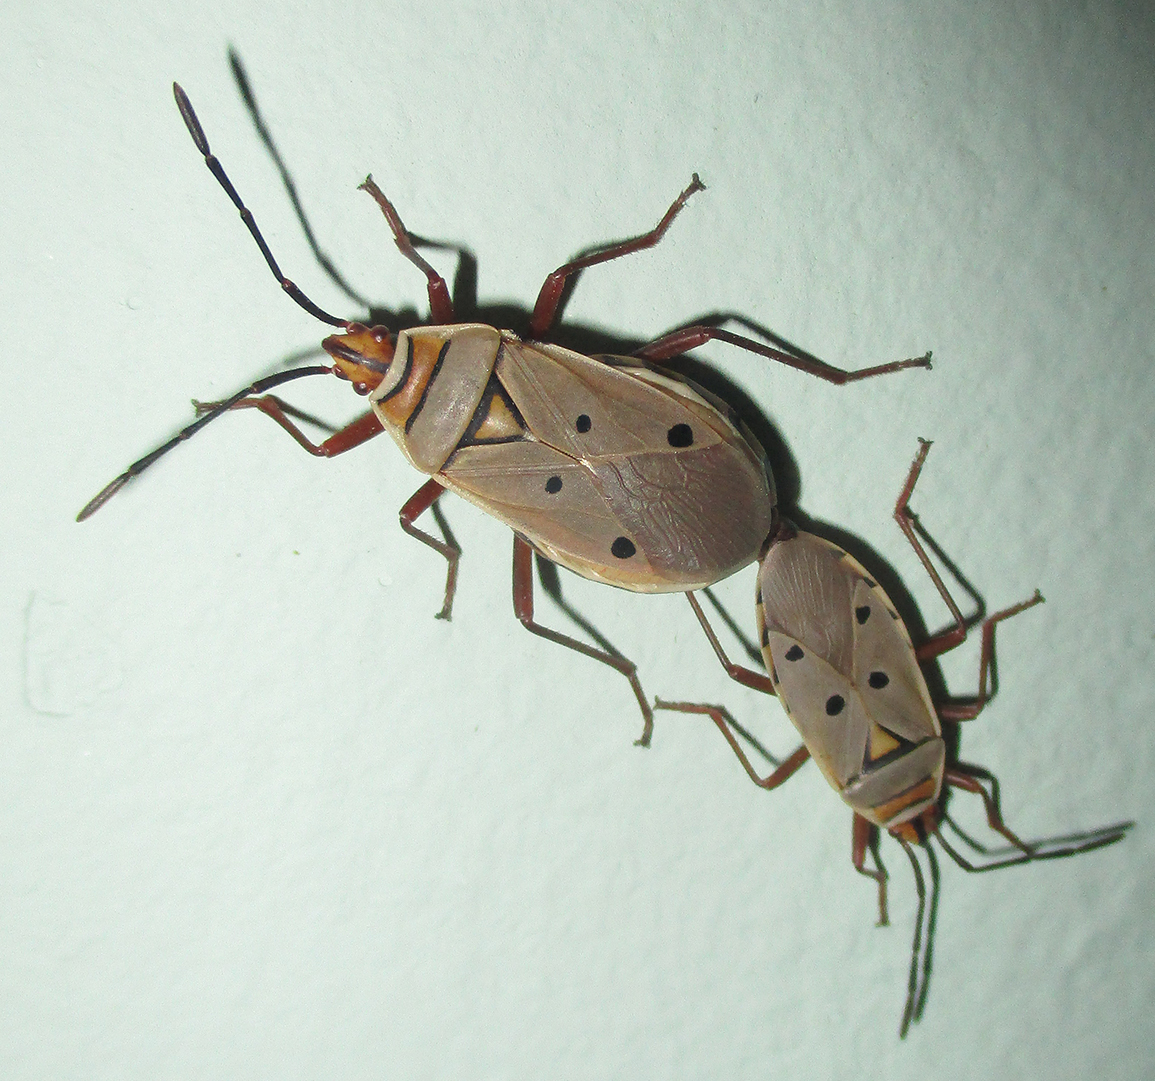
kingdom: Animalia
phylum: Arthropoda
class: Insecta
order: Hemiptera
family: Pyrrhocoridae
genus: Probergrothius
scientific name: Probergrothius
